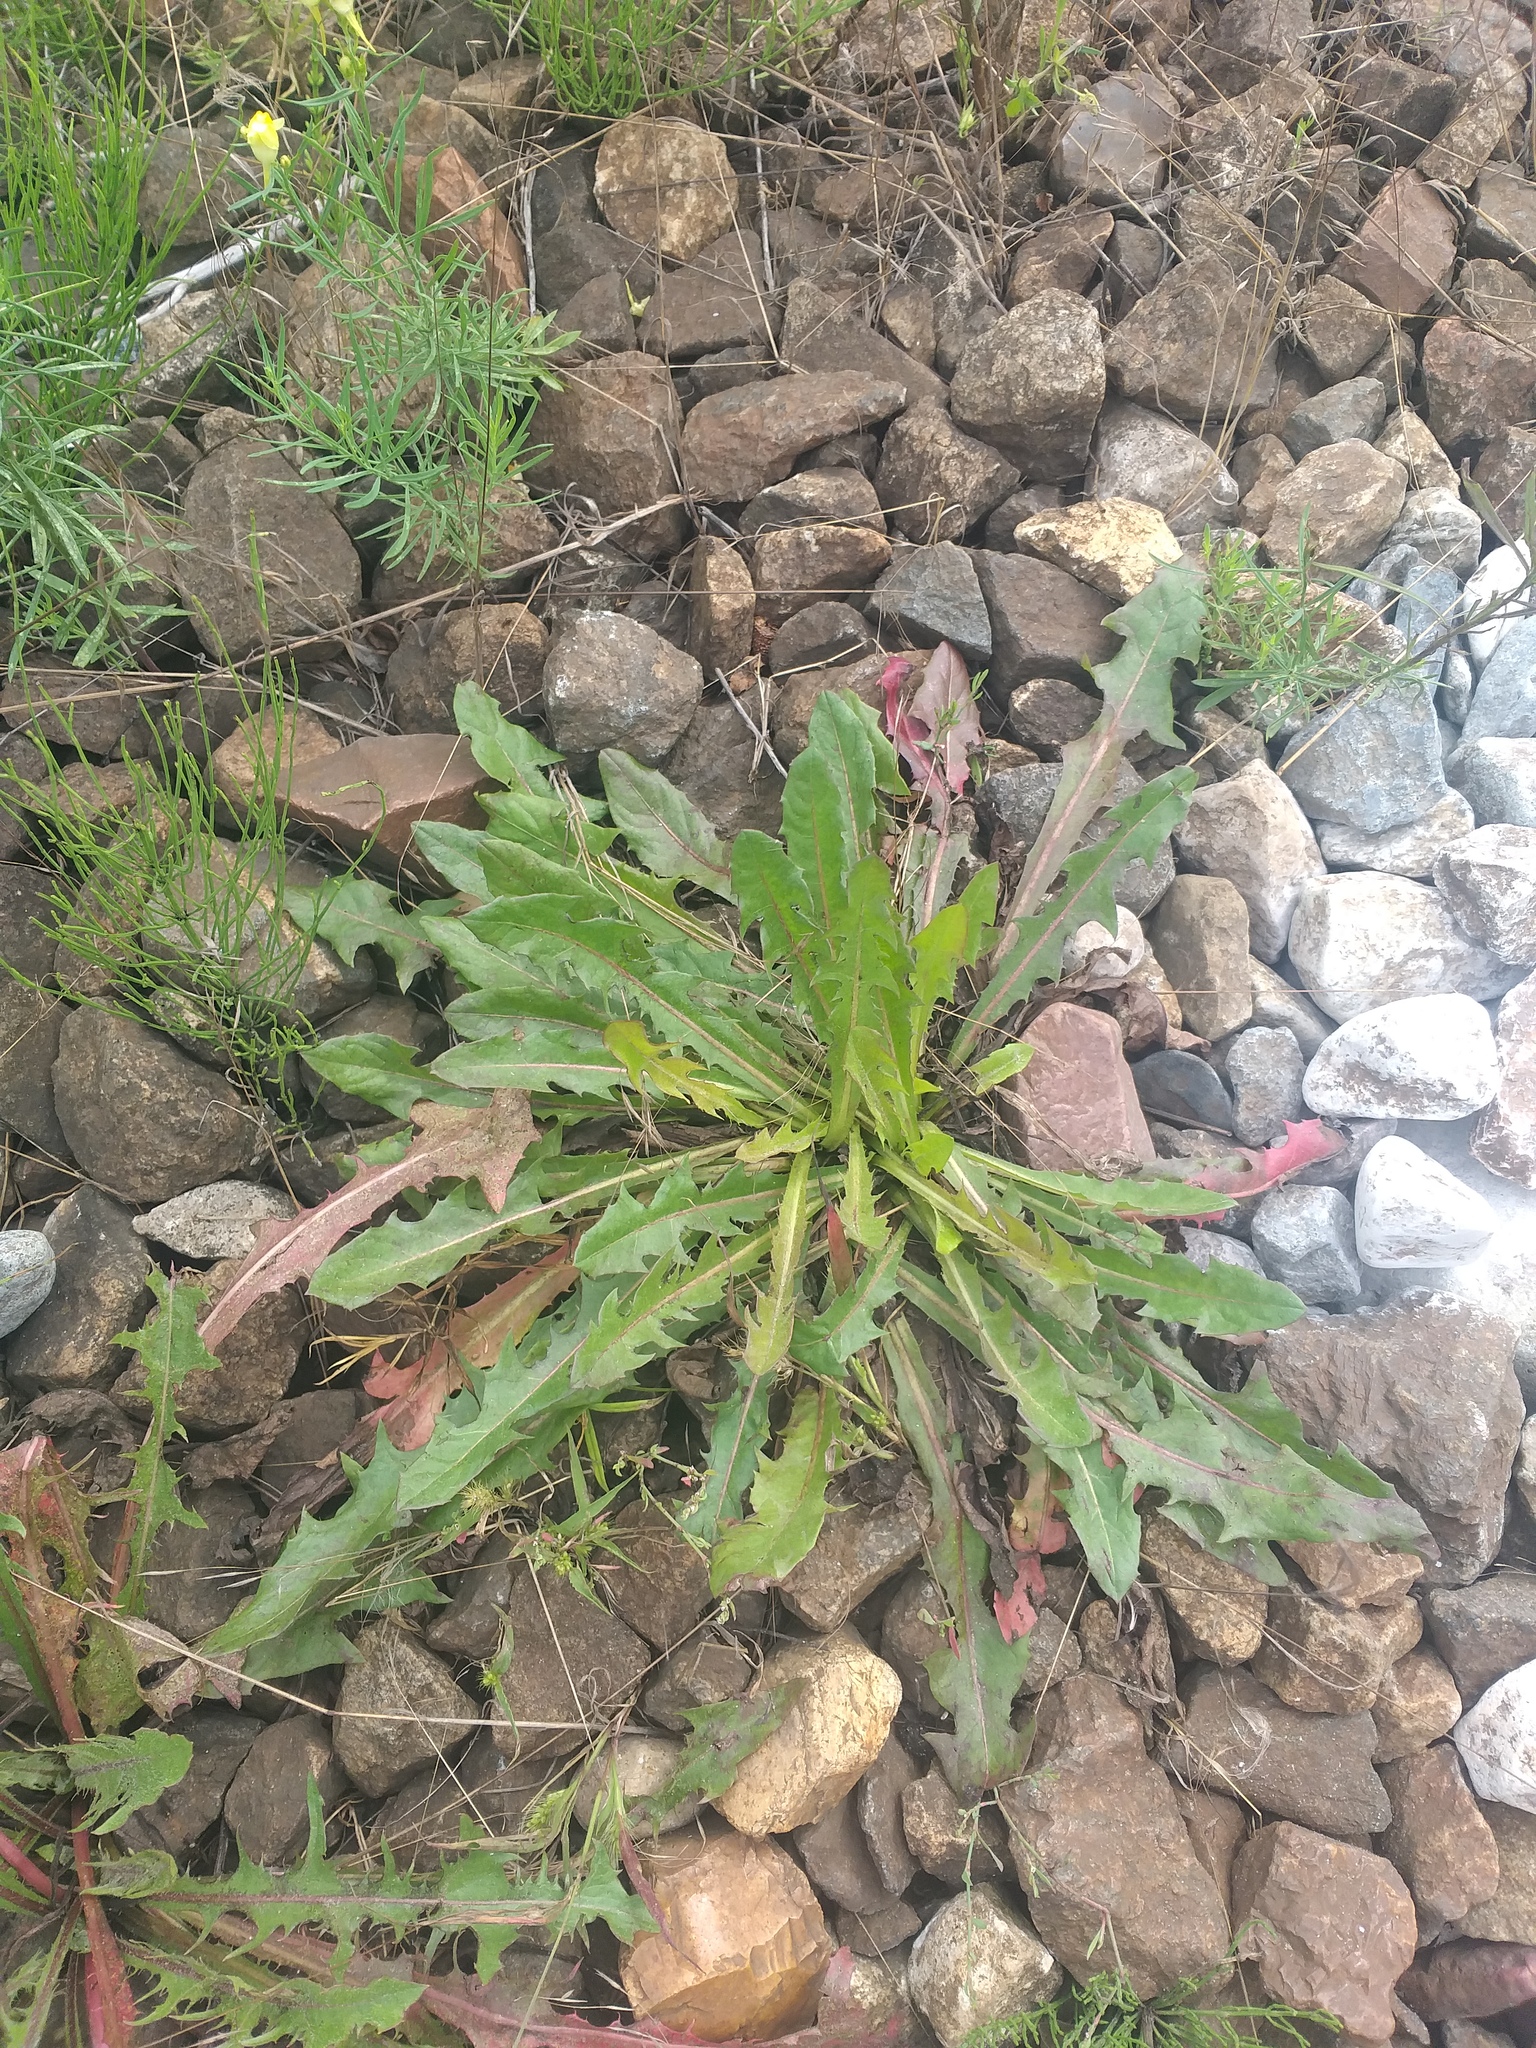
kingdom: Plantae
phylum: Tracheophyta
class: Magnoliopsida
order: Asterales
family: Asteraceae
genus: Taraxacum
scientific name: Taraxacum officinale
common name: Common dandelion
